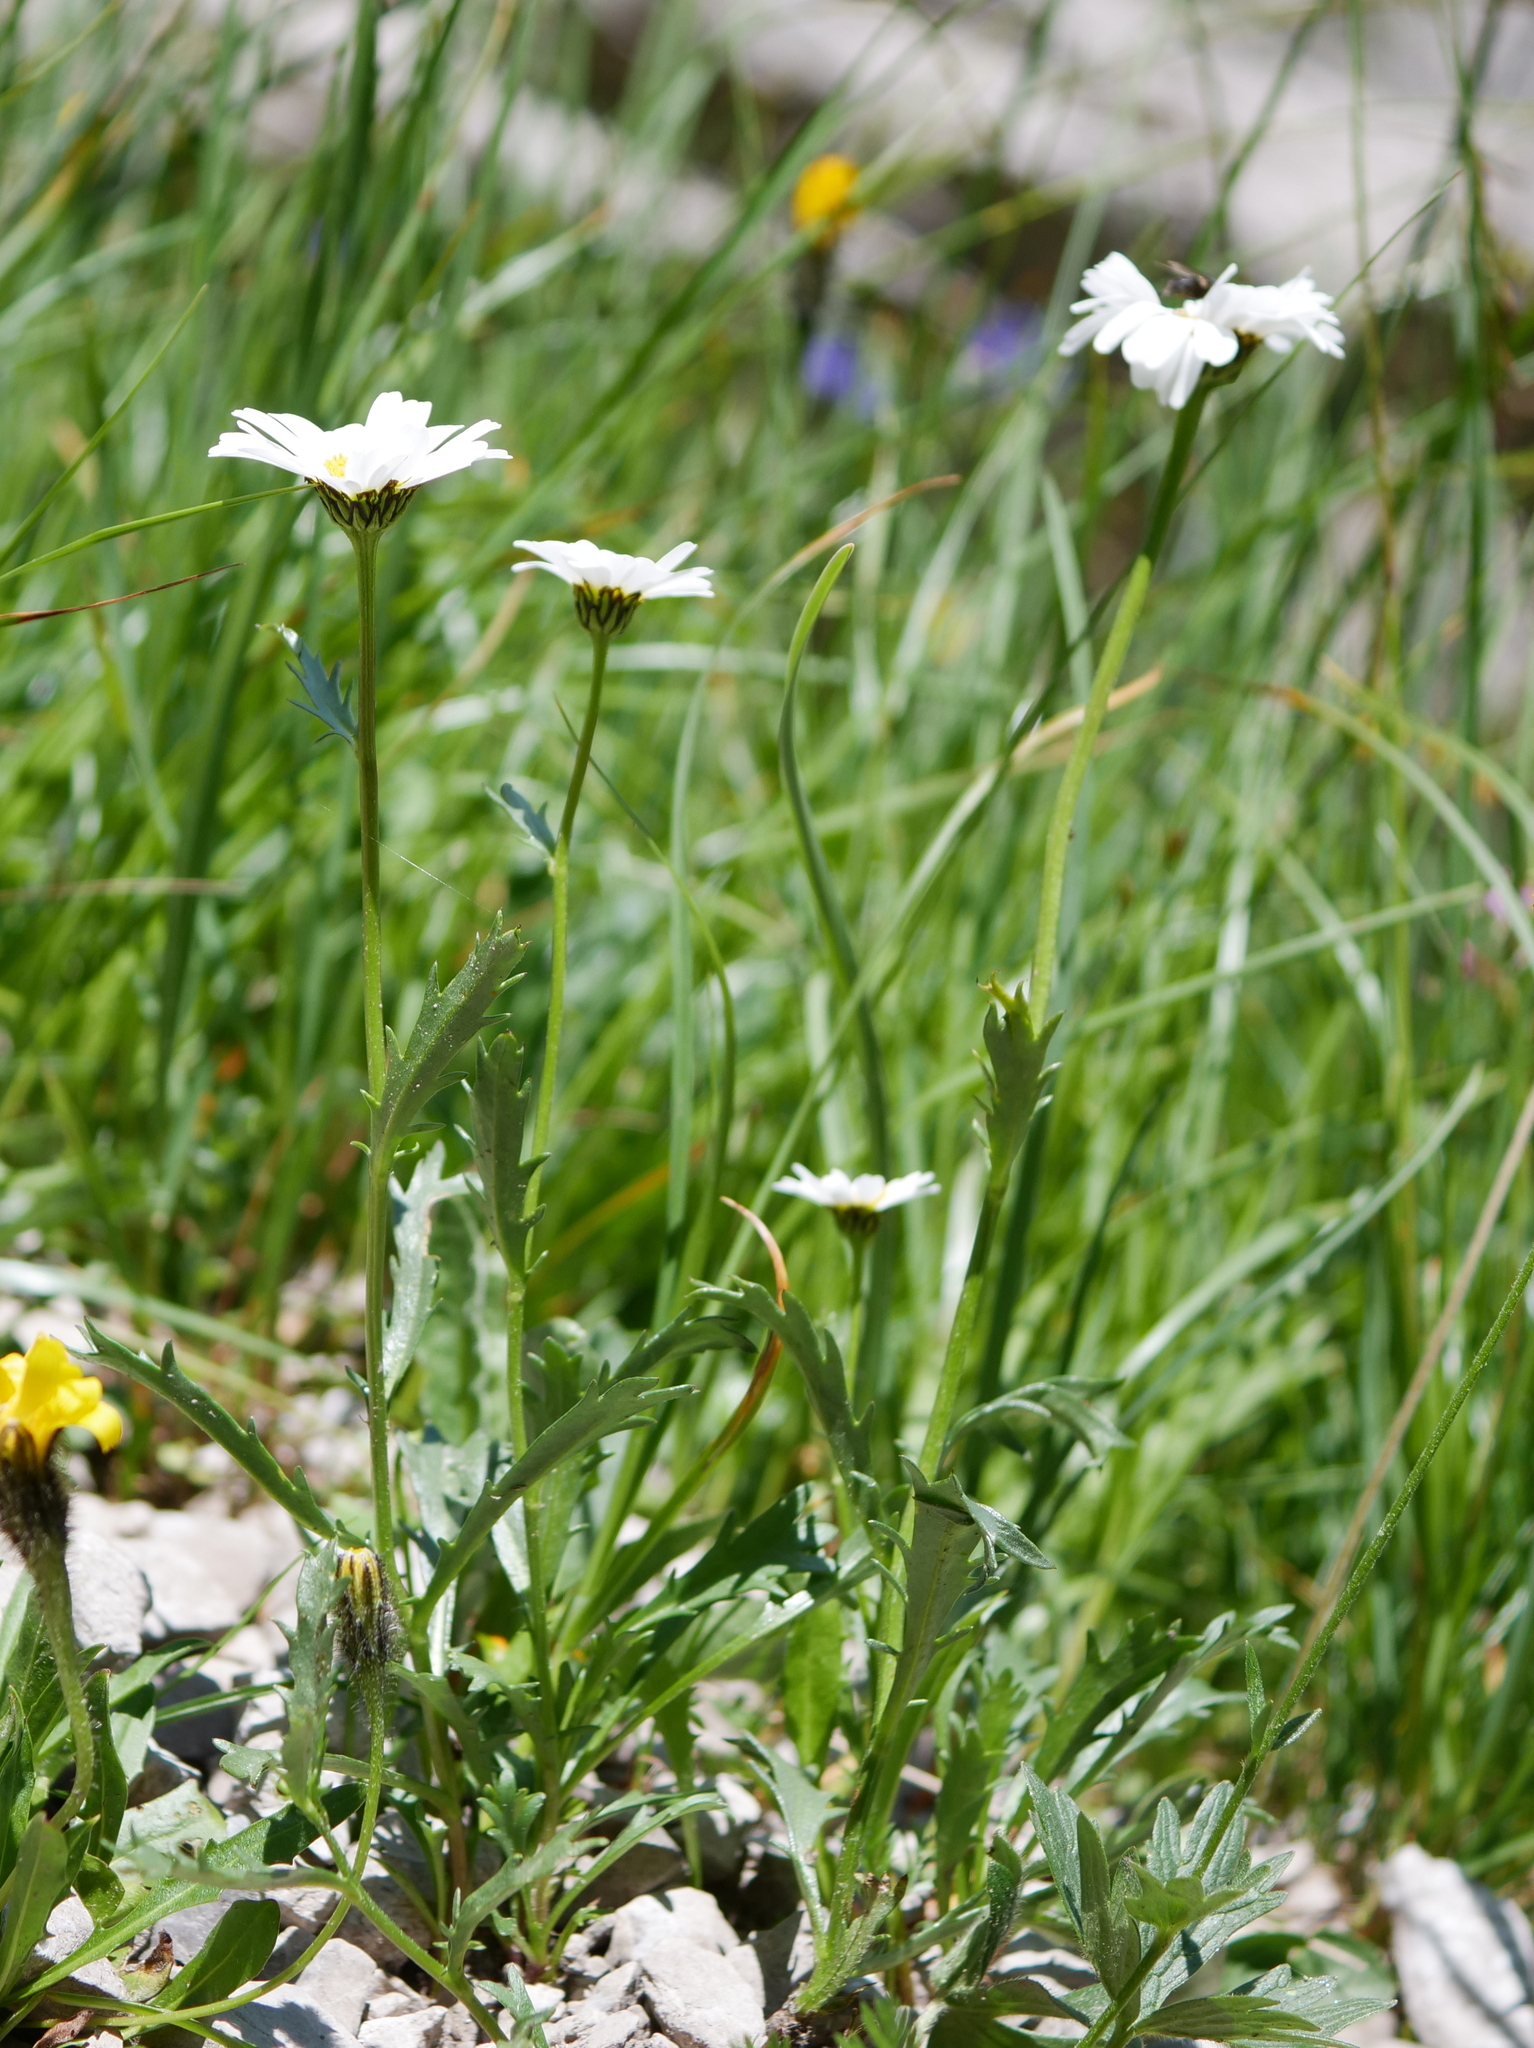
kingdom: Plantae
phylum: Tracheophyta
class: Magnoliopsida
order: Asterales
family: Asteraceae
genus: Leucanthemum
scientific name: Leucanthemum halleri
